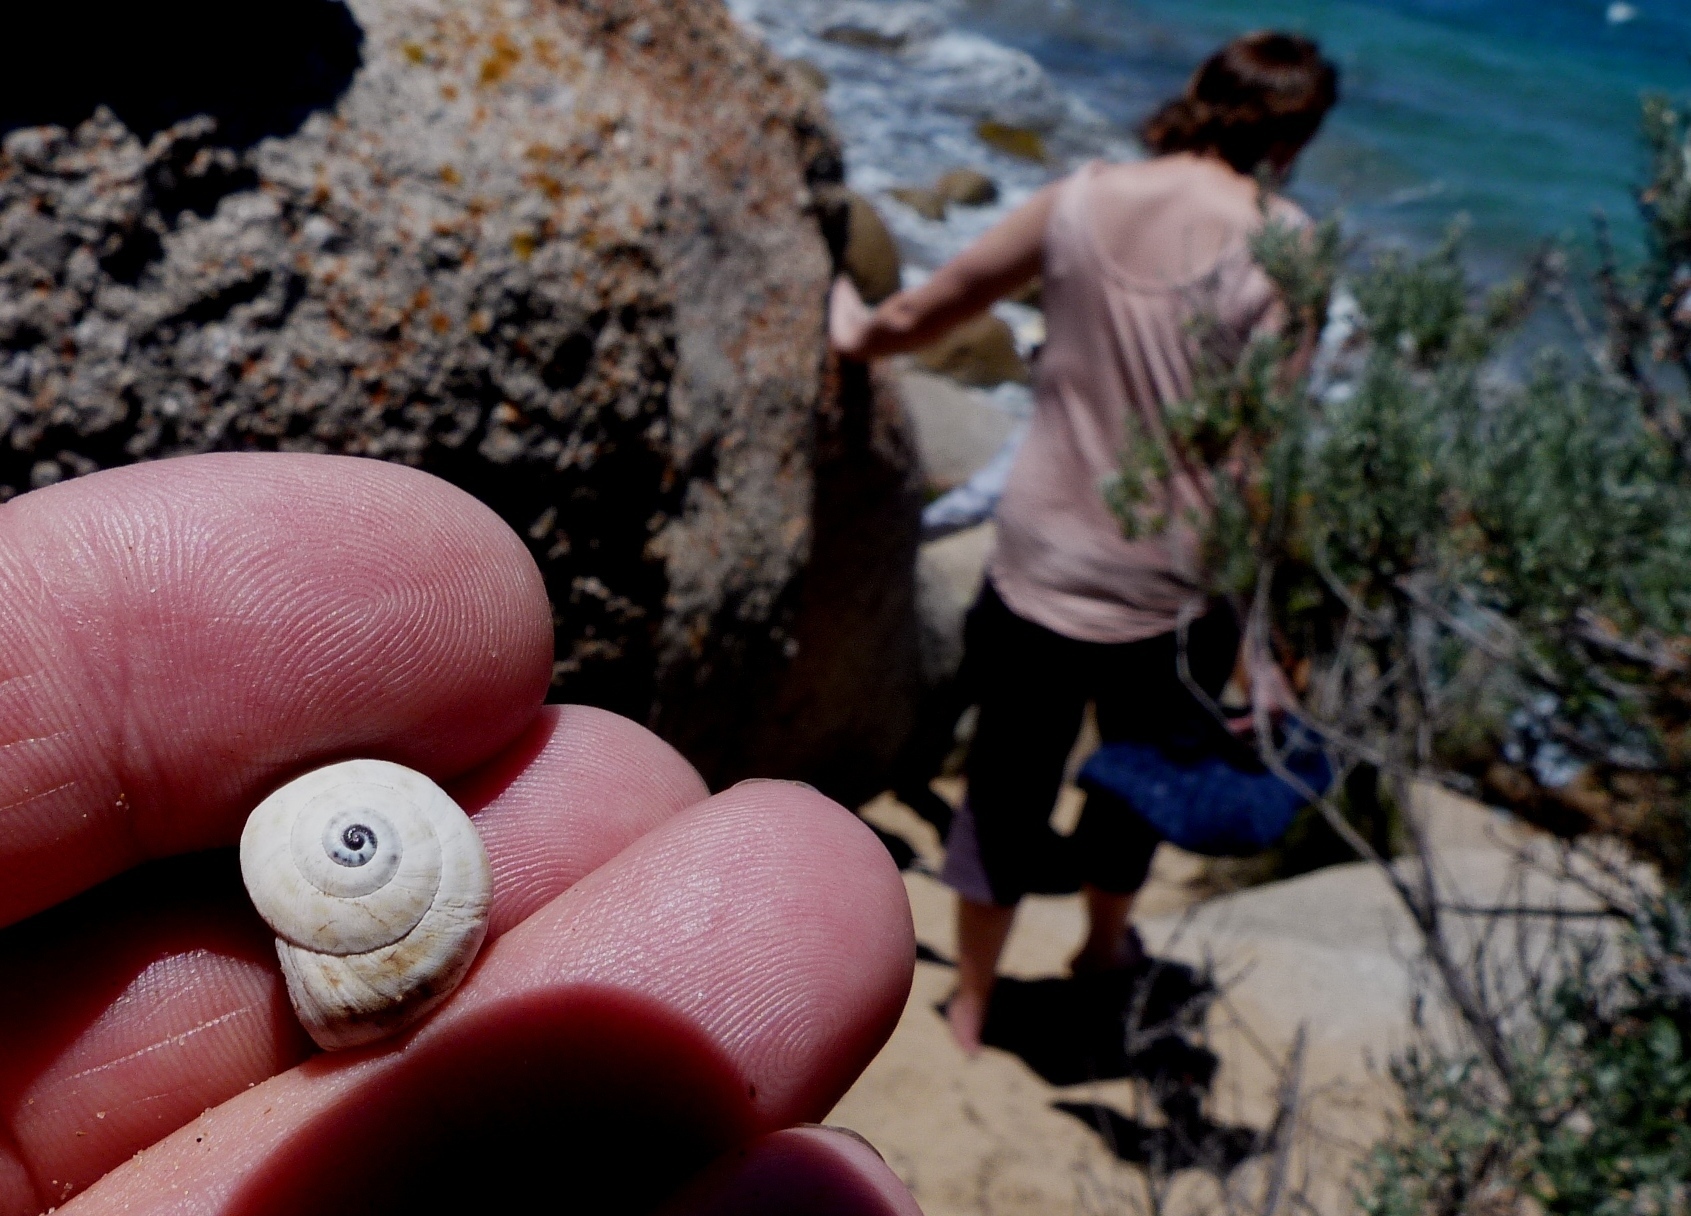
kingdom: Animalia
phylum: Mollusca
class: Gastropoda
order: Stylommatophora
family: Helicidae
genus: Theba
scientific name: Theba pisana
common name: White snail
